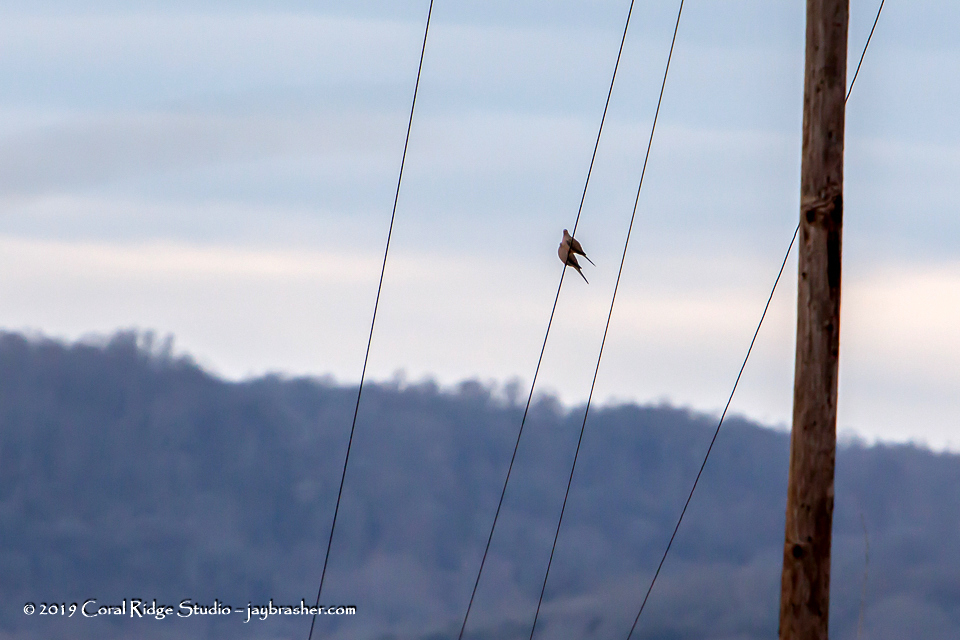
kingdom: Animalia
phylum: Chordata
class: Aves
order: Columbiformes
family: Columbidae
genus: Zenaida
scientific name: Zenaida macroura
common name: Mourning dove
